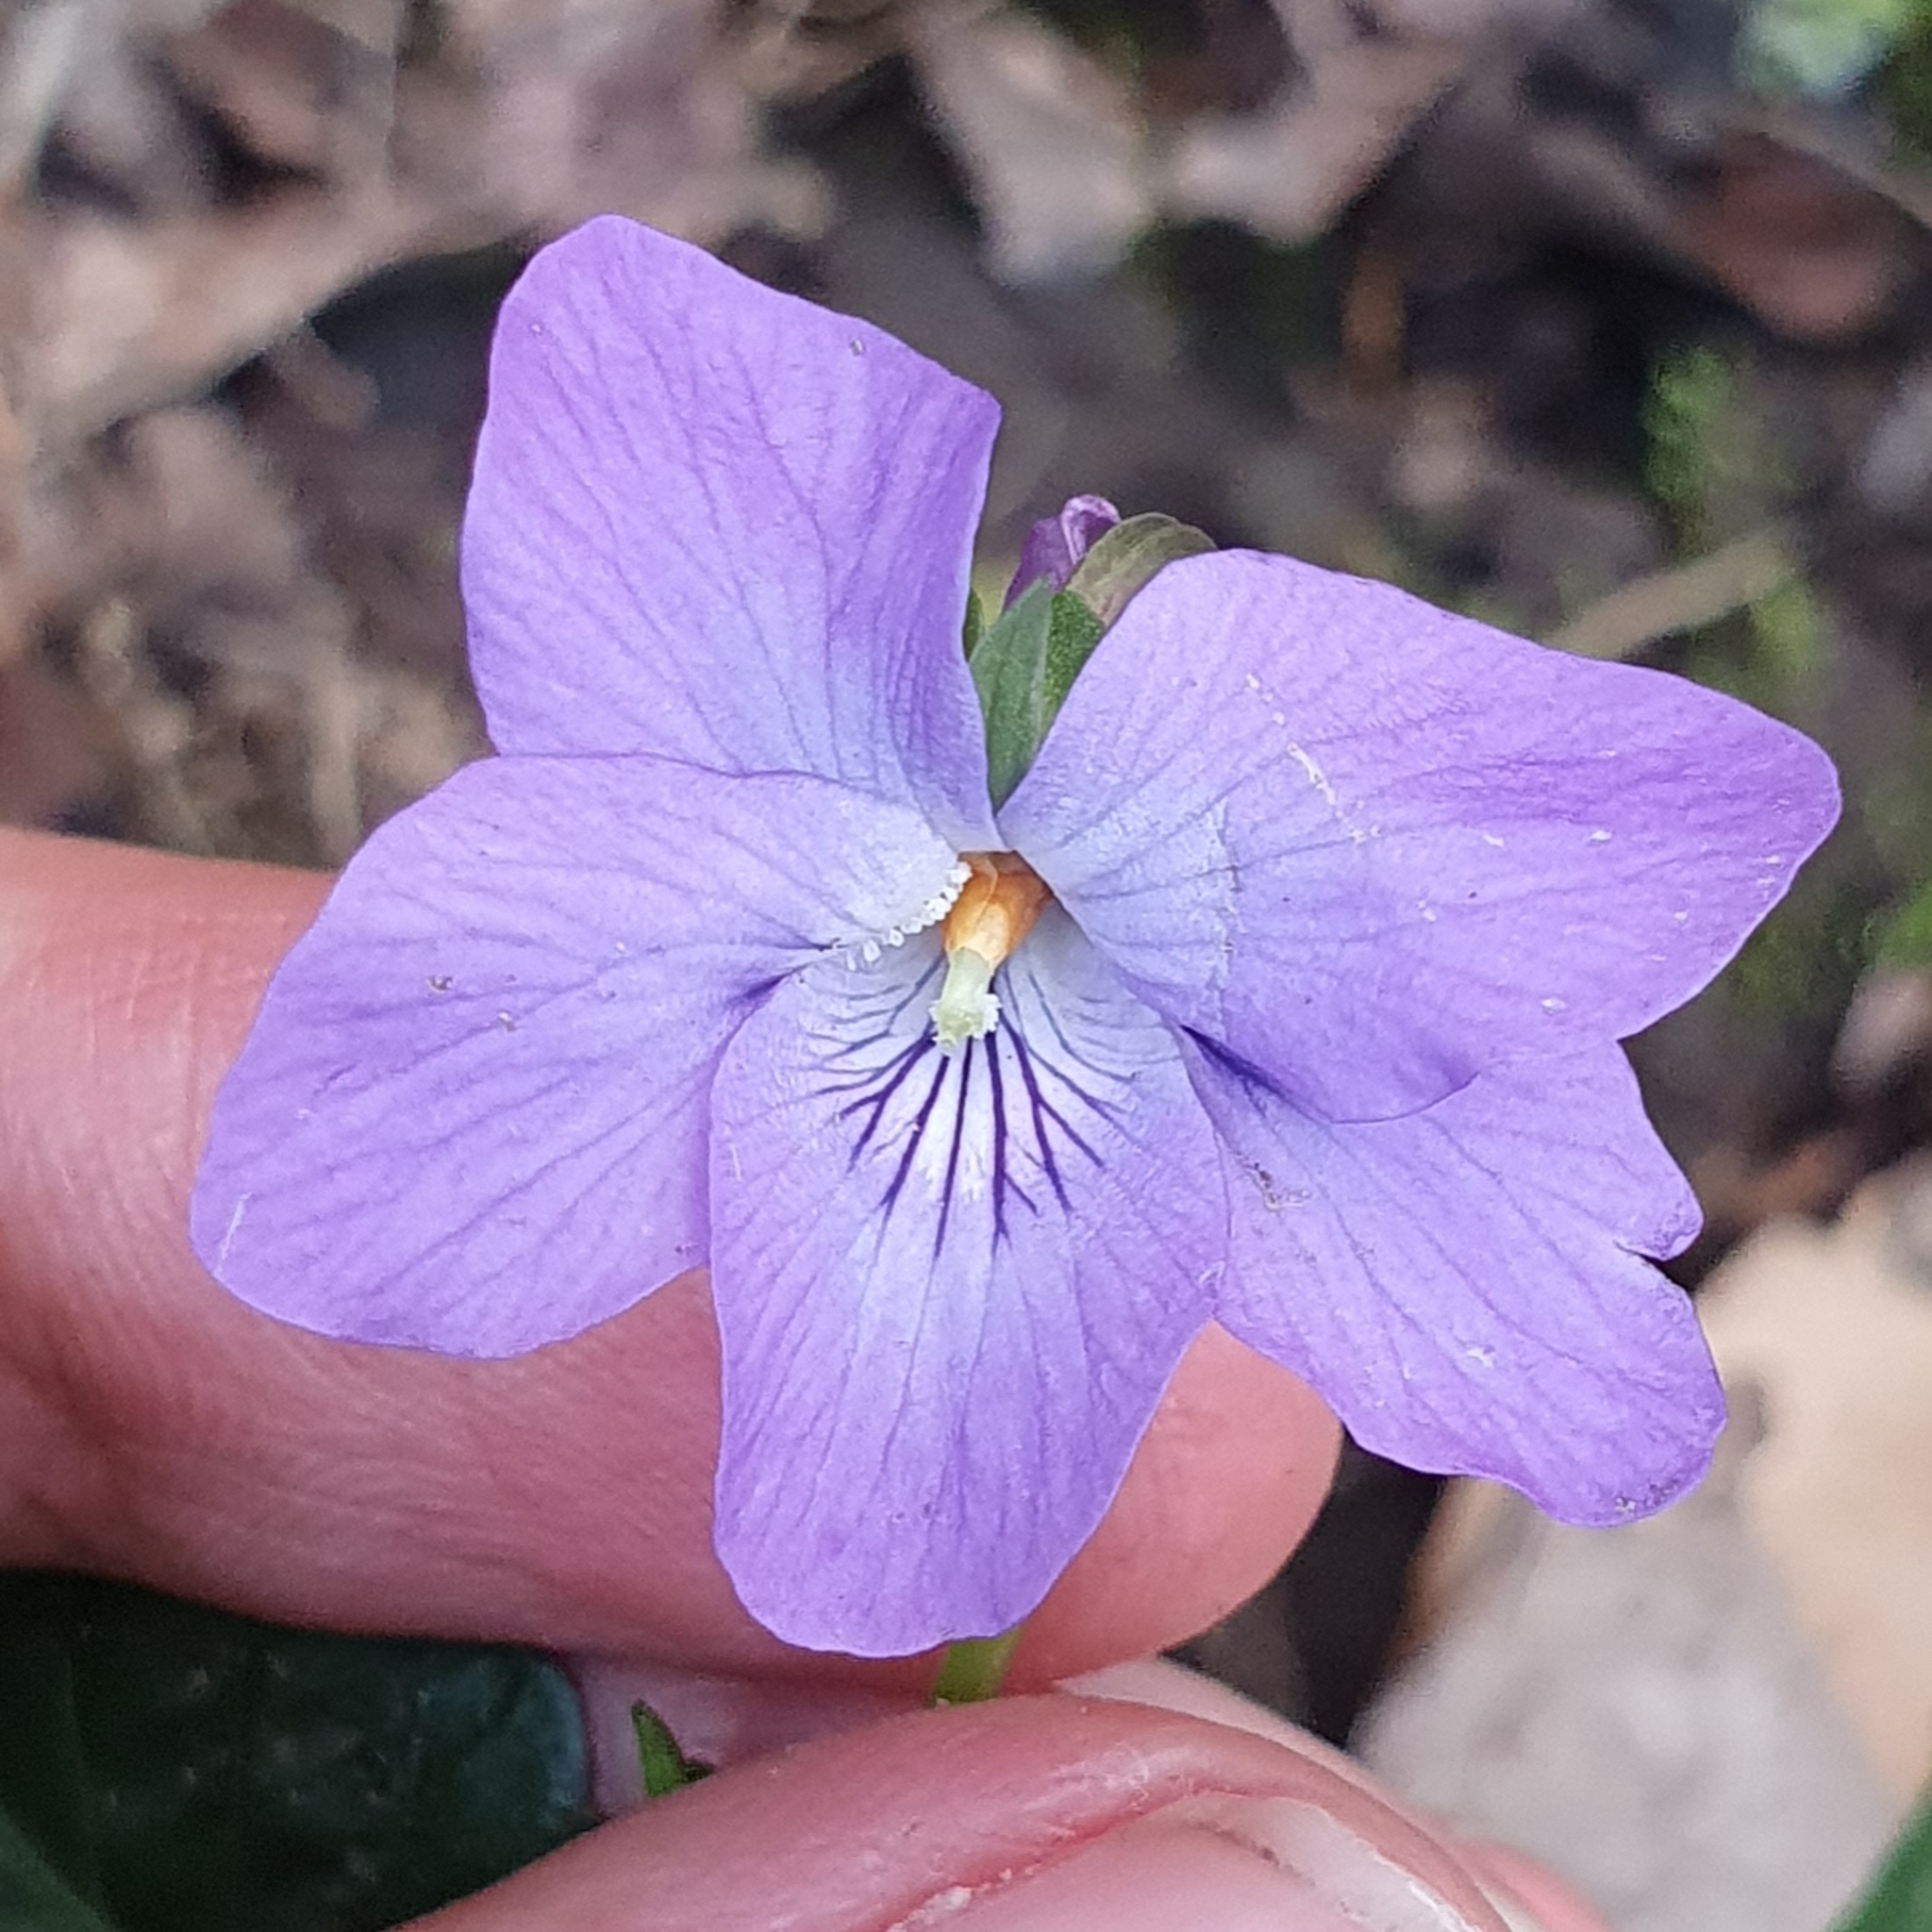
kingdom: Plantae
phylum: Tracheophyta
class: Magnoliopsida
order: Malpighiales
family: Violaceae
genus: Viola
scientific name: Viola riviniana
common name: Common dog-violet
